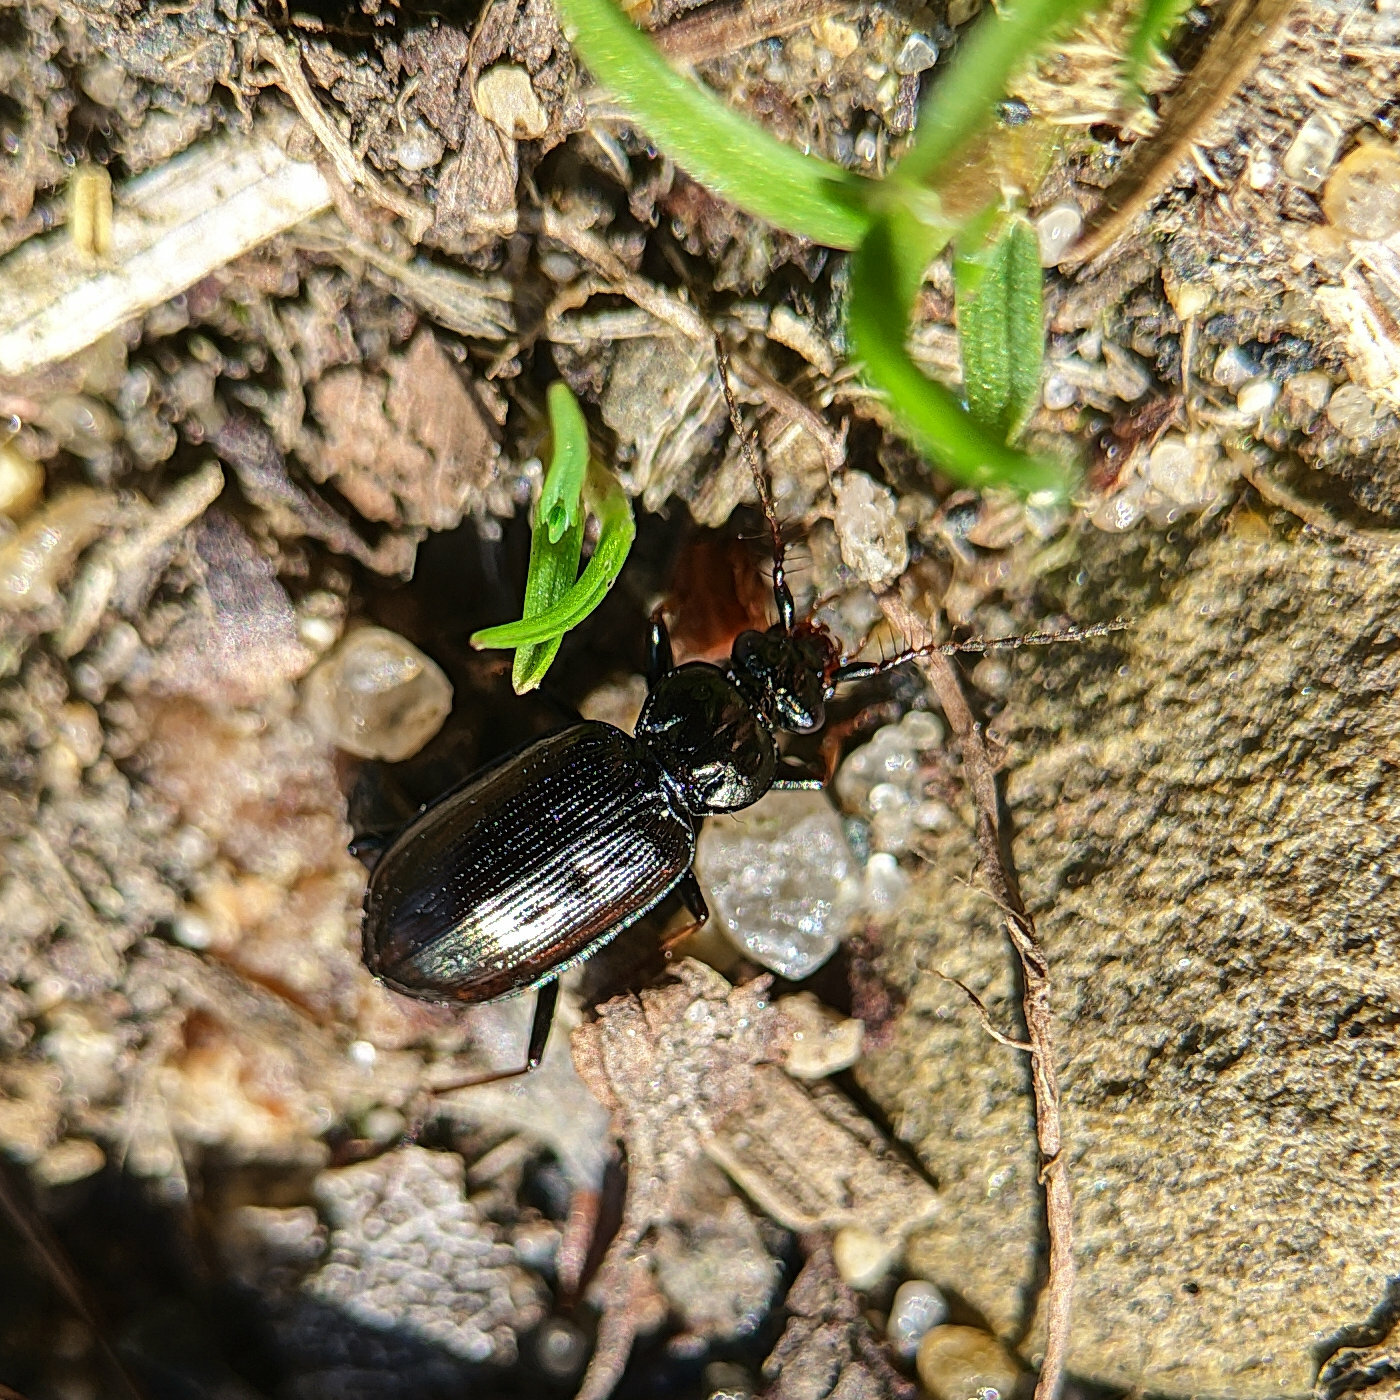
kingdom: Animalia
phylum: Arthropoda
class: Insecta
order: Coleoptera
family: Carabidae
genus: Loricera
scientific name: Loricera pilicornis
